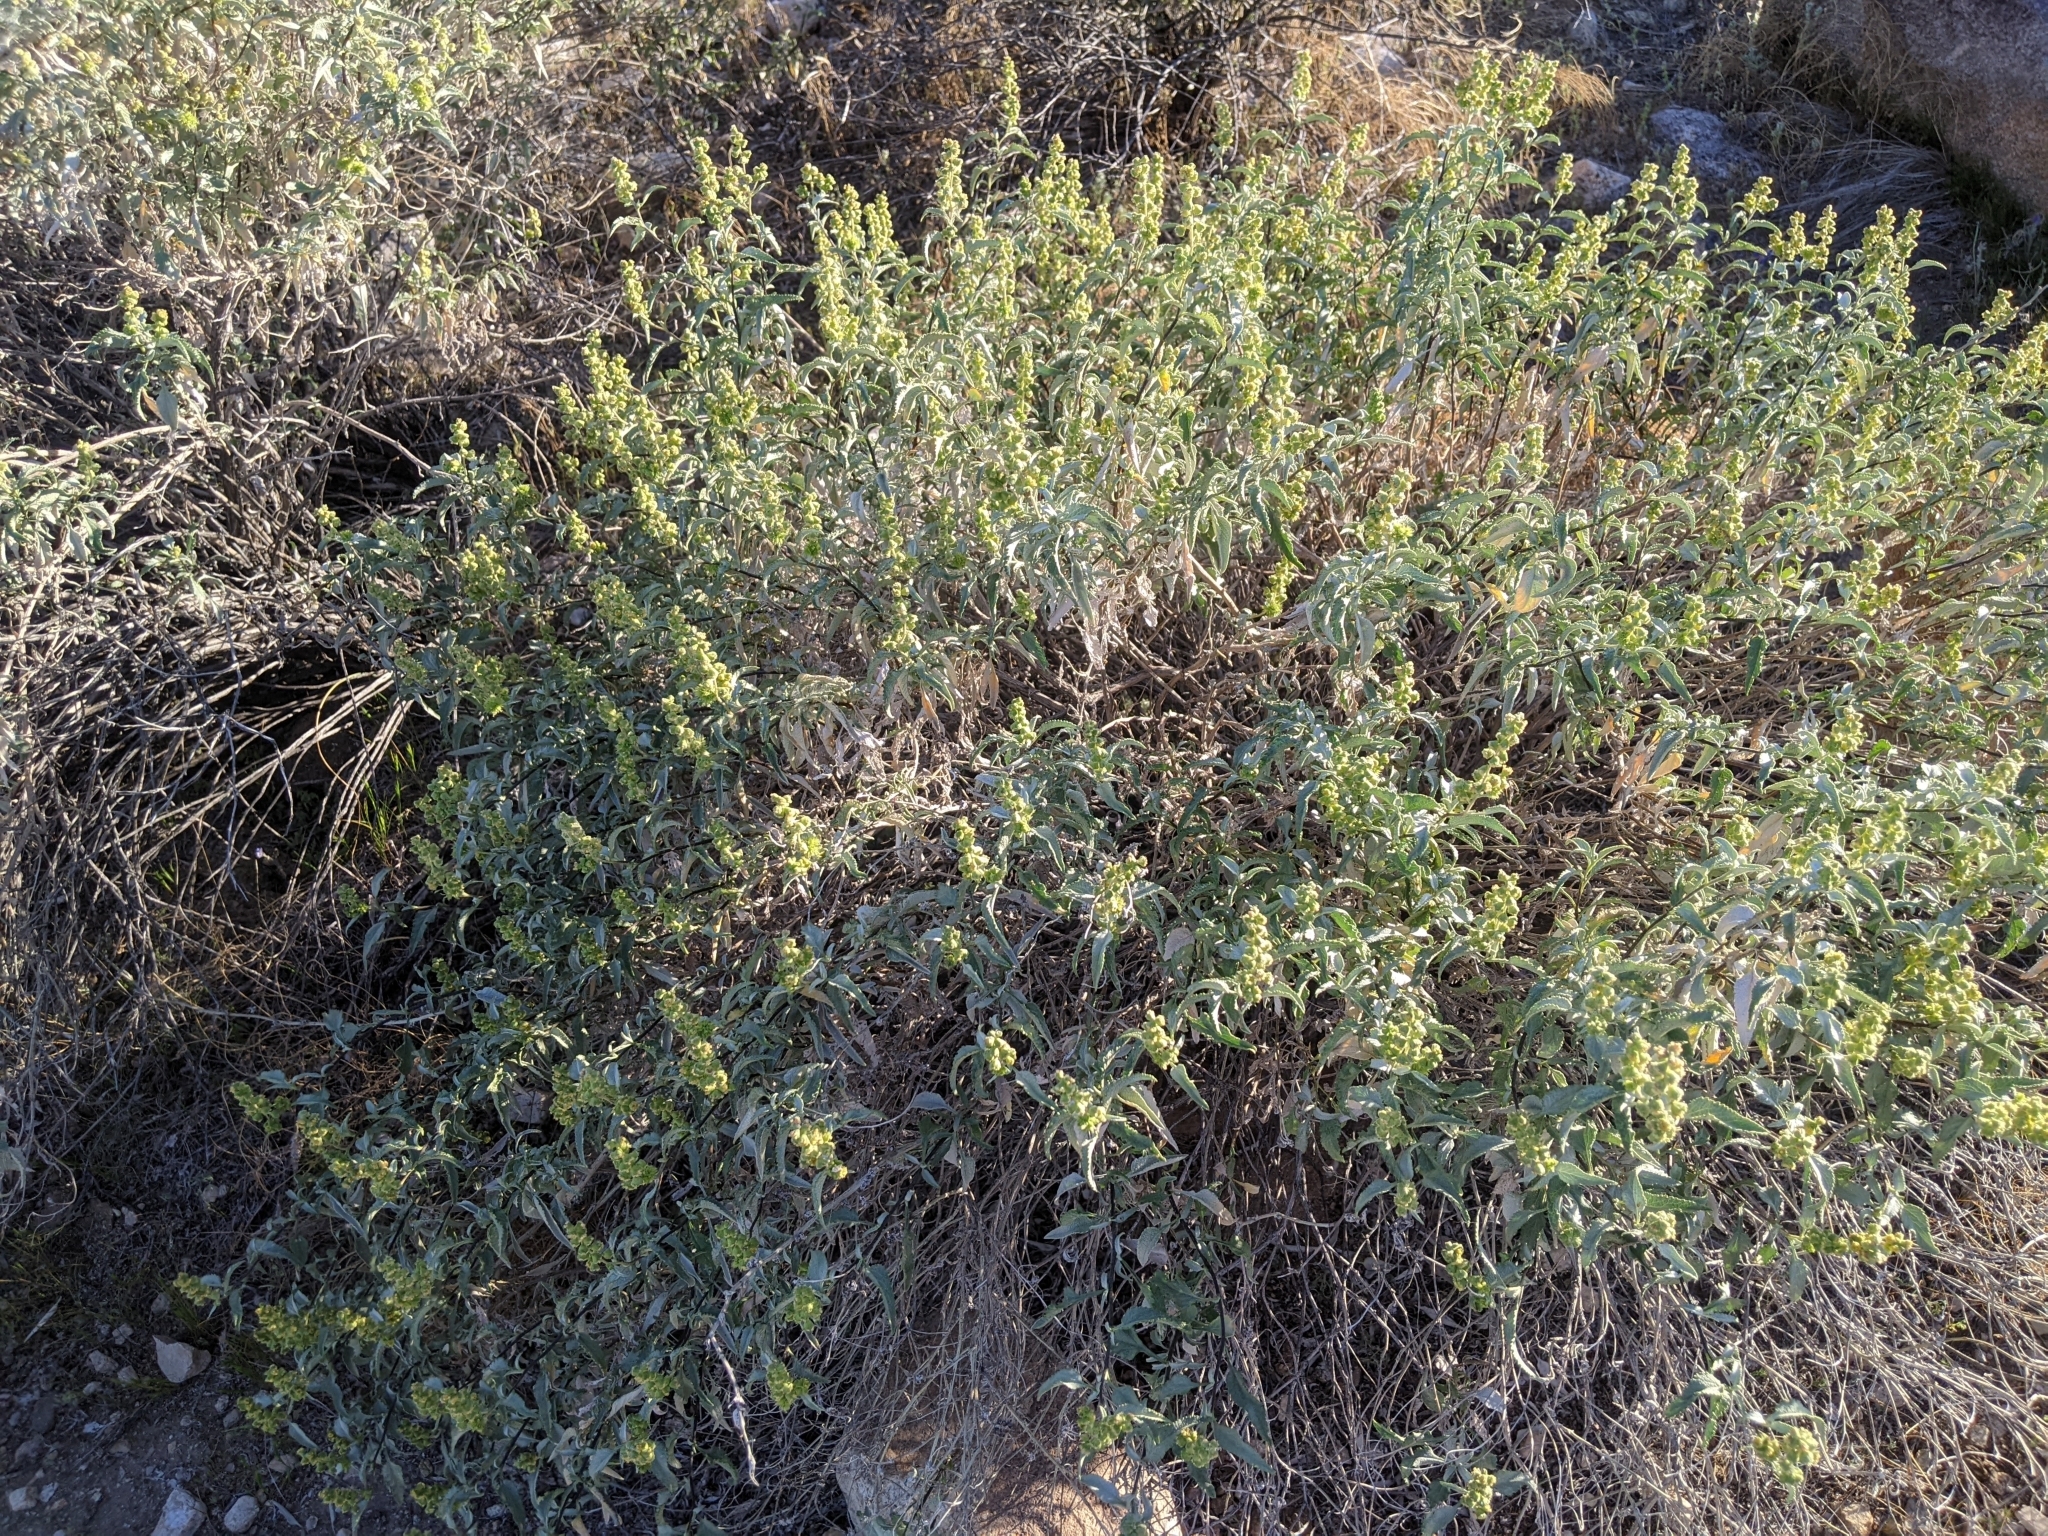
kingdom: Plantae
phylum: Tracheophyta
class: Magnoliopsida
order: Asterales
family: Asteraceae
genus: Ambrosia
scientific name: Ambrosia deltoidea
